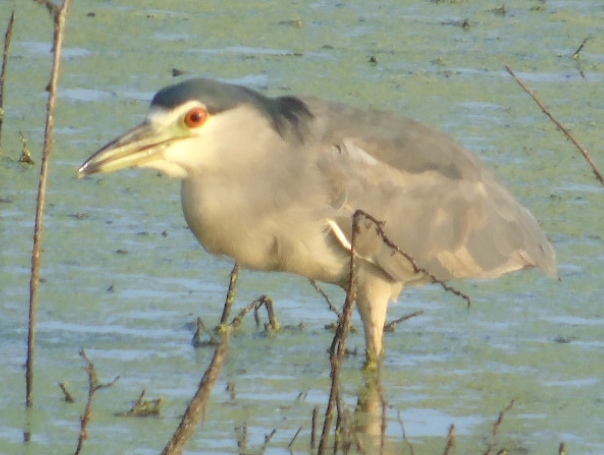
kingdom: Animalia
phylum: Chordata
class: Aves
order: Pelecaniformes
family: Ardeidae
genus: Nycticorax
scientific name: Nycticorax nycticorax
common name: Black-crowned night heron
